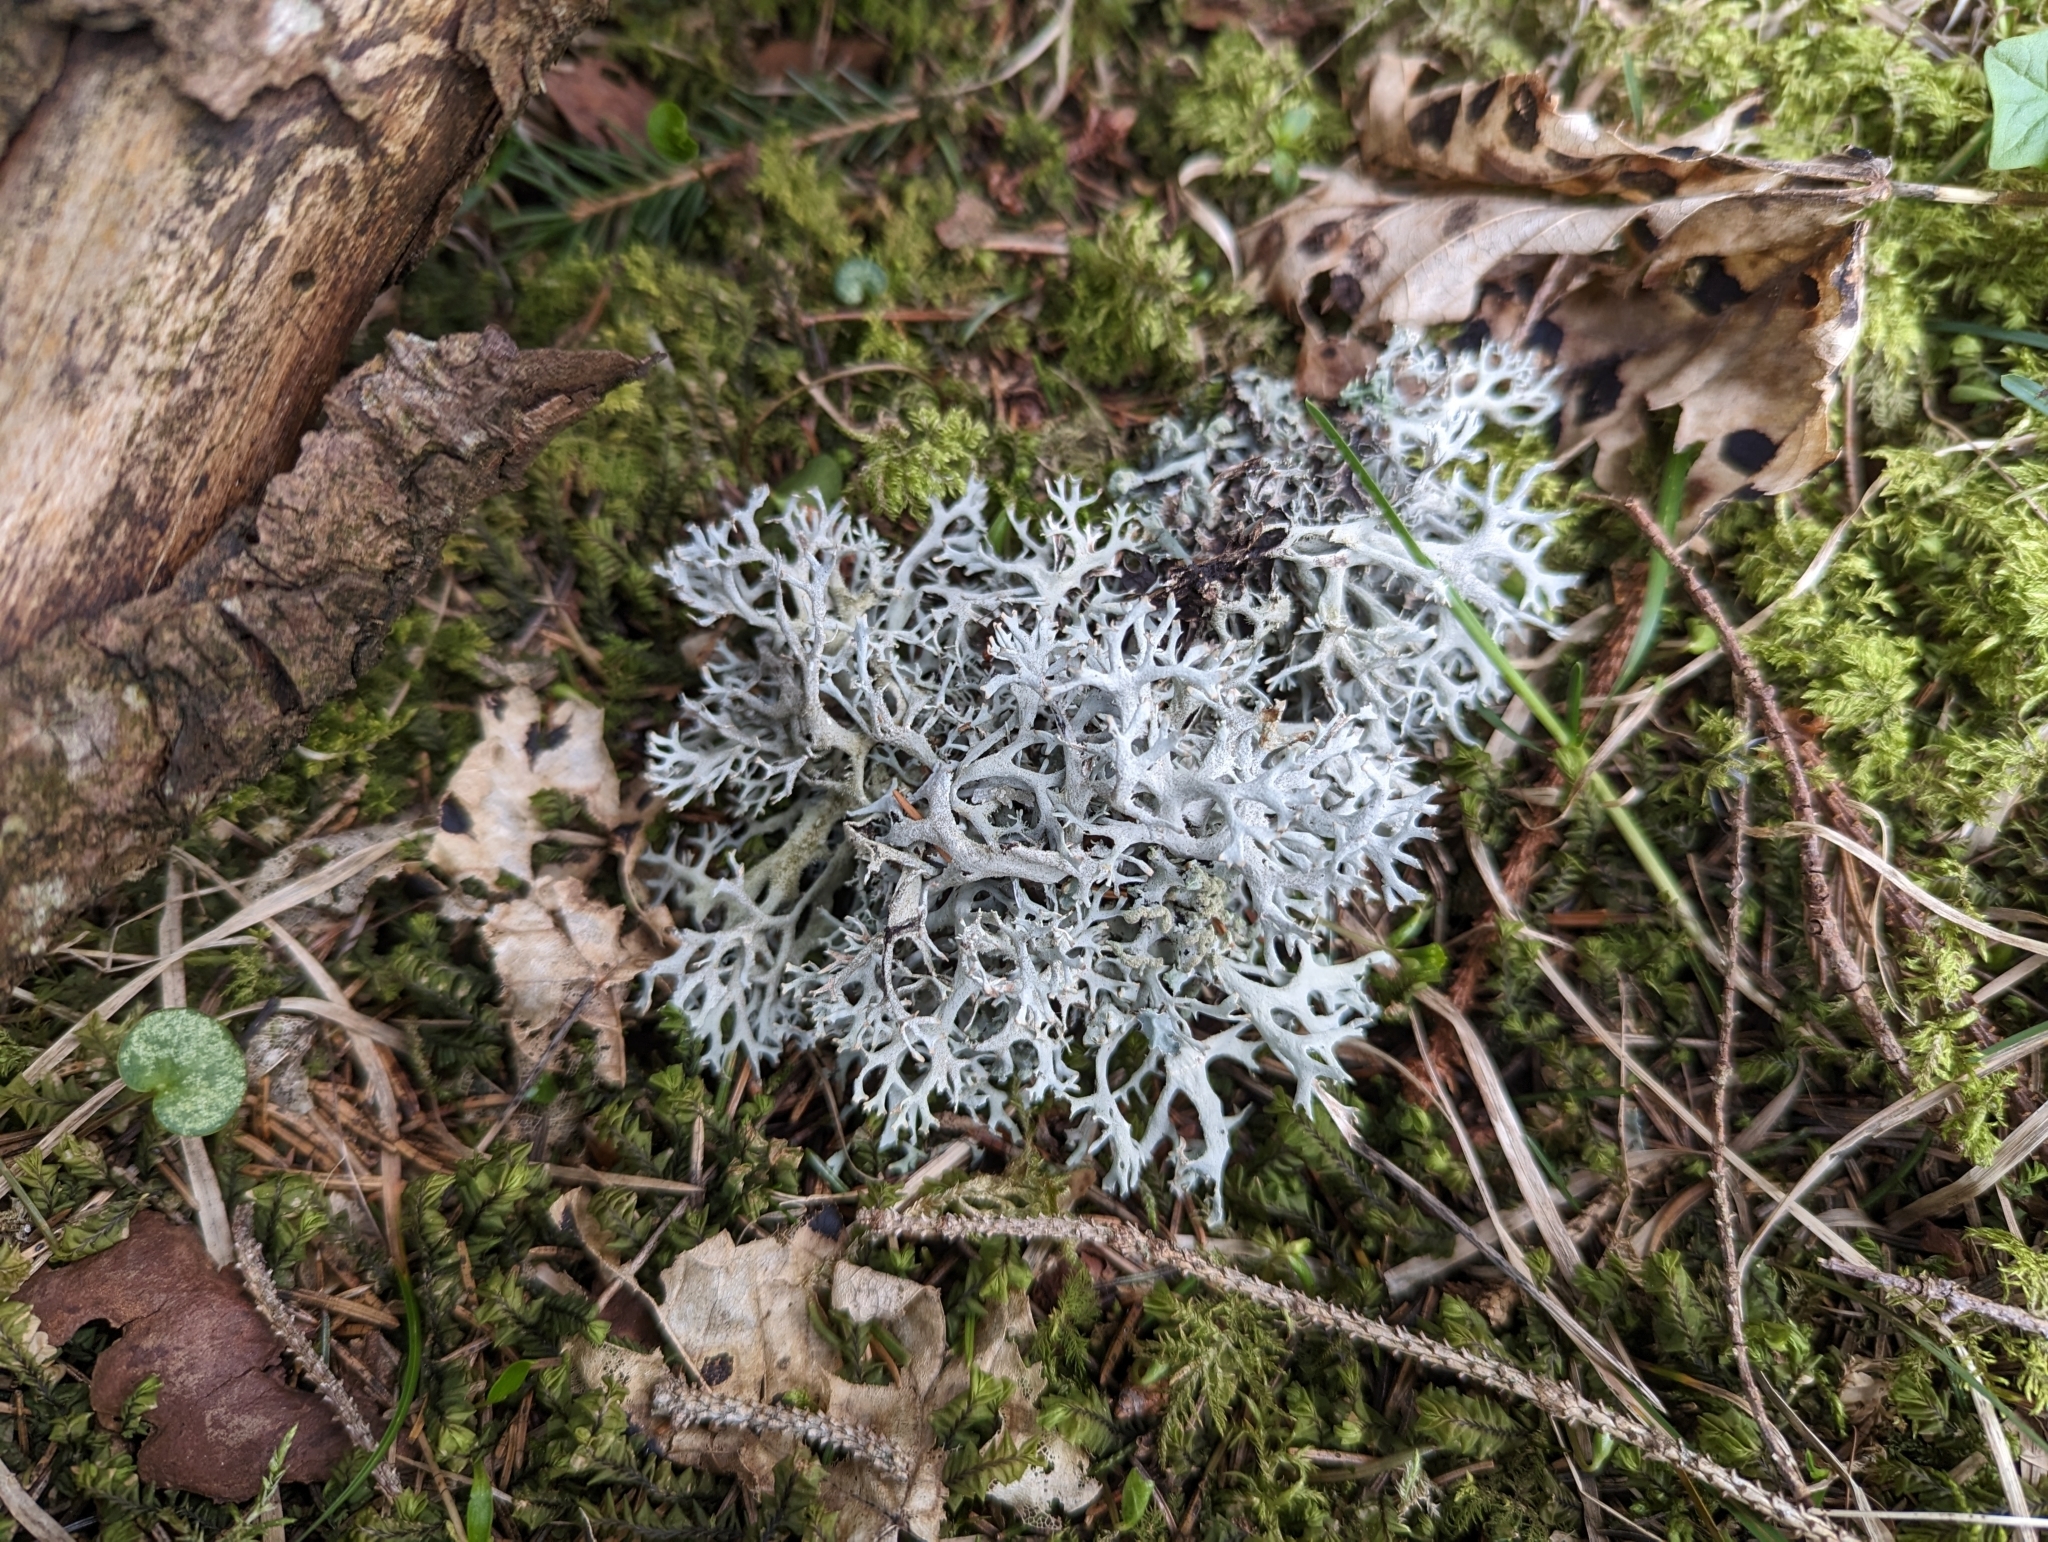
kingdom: Fungi
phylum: Ascomycota
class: Lecanoromycetes
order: Lecanorales
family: Parmeliaceae
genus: Pseudevernia
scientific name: Pseudevernia furfuracea
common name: Tree moss
